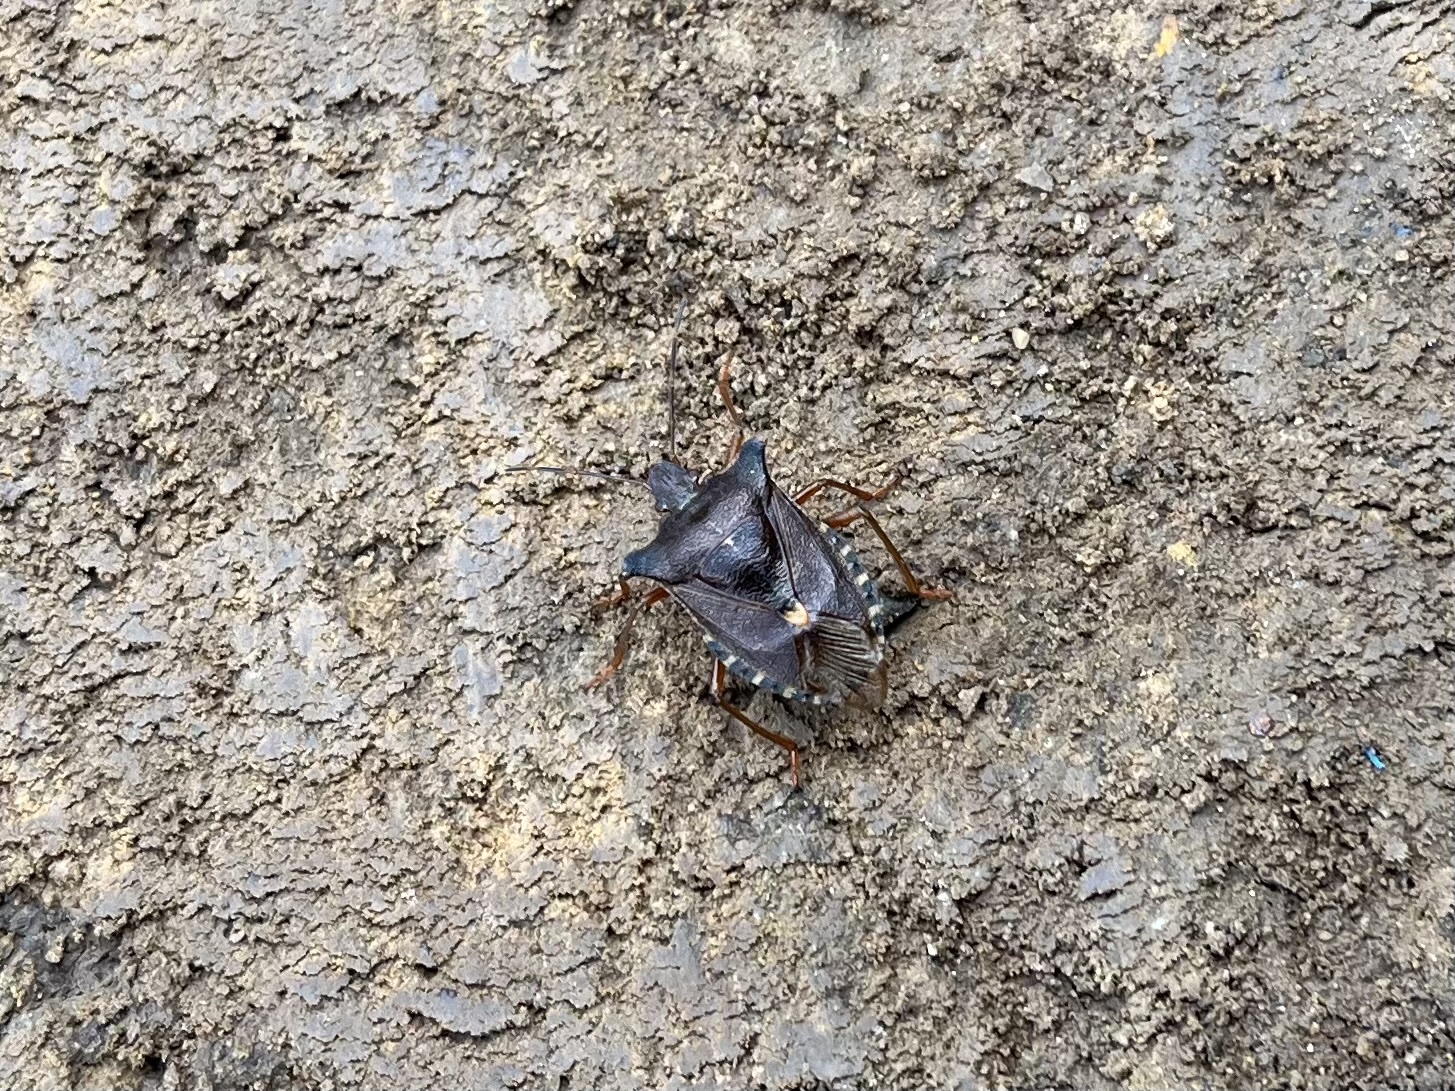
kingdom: Animalia
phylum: Arthropoda
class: Insecta
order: Hemiptera
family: Pentatomidae
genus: Pentatoma
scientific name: Pentatoma rufipes
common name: Forest bug
